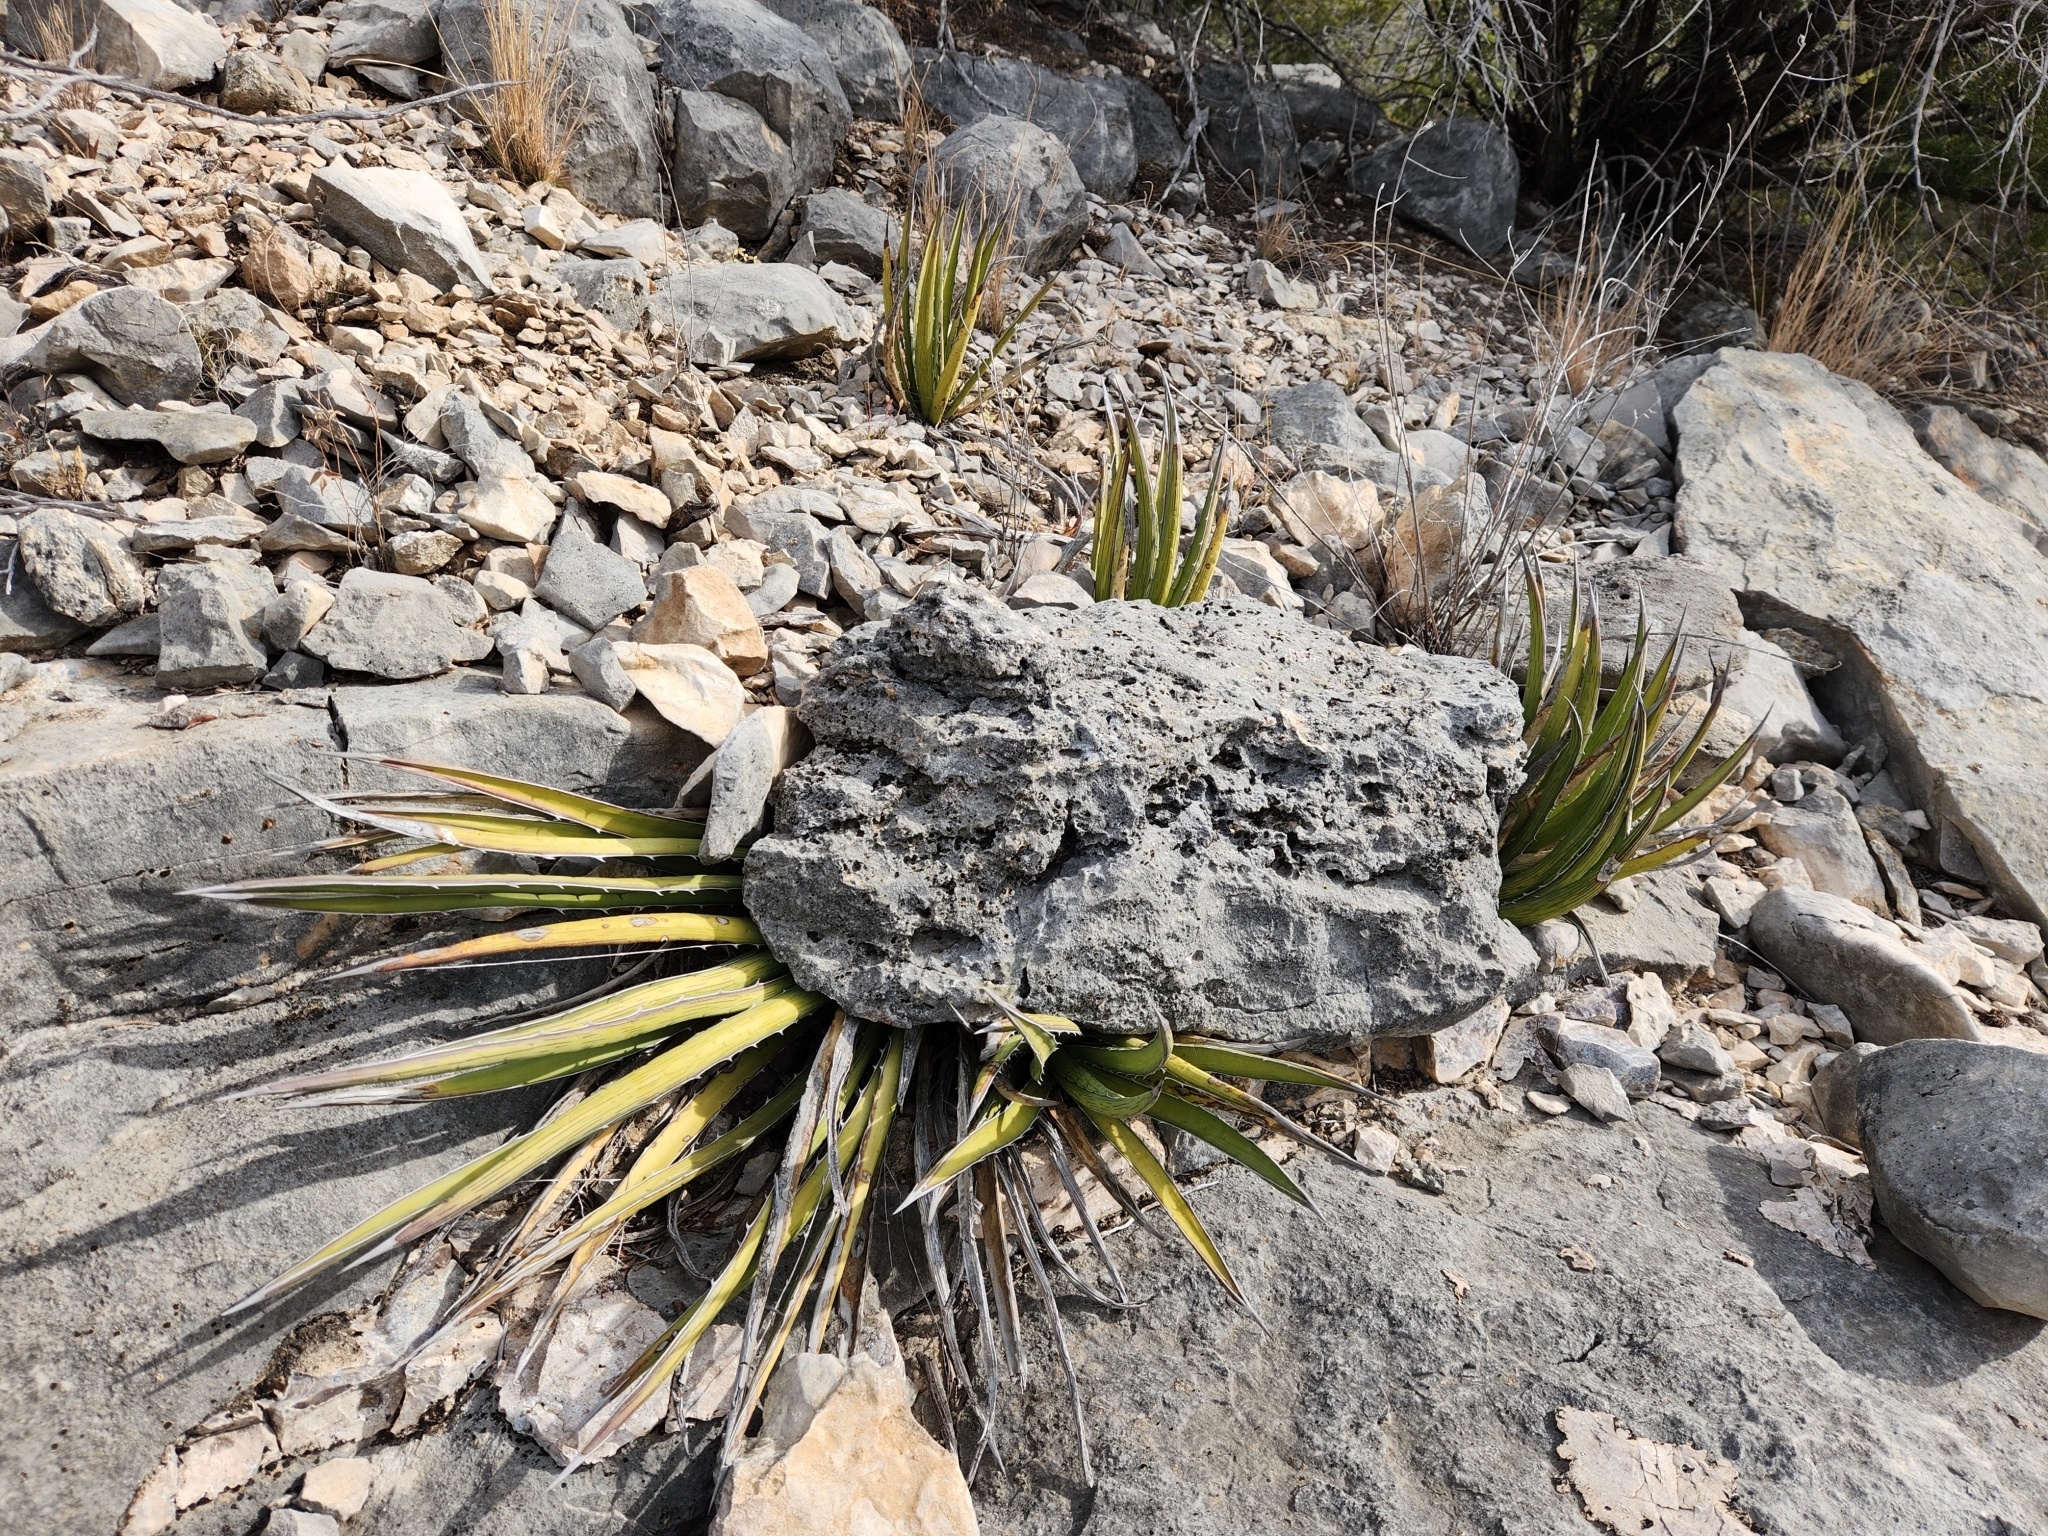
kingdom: Plantae
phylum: Tracheophyta
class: Liliopsida
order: Asparagales
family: Asparagaceae
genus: Agave
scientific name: Agave lechuguilla
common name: Lecheguilla agave
